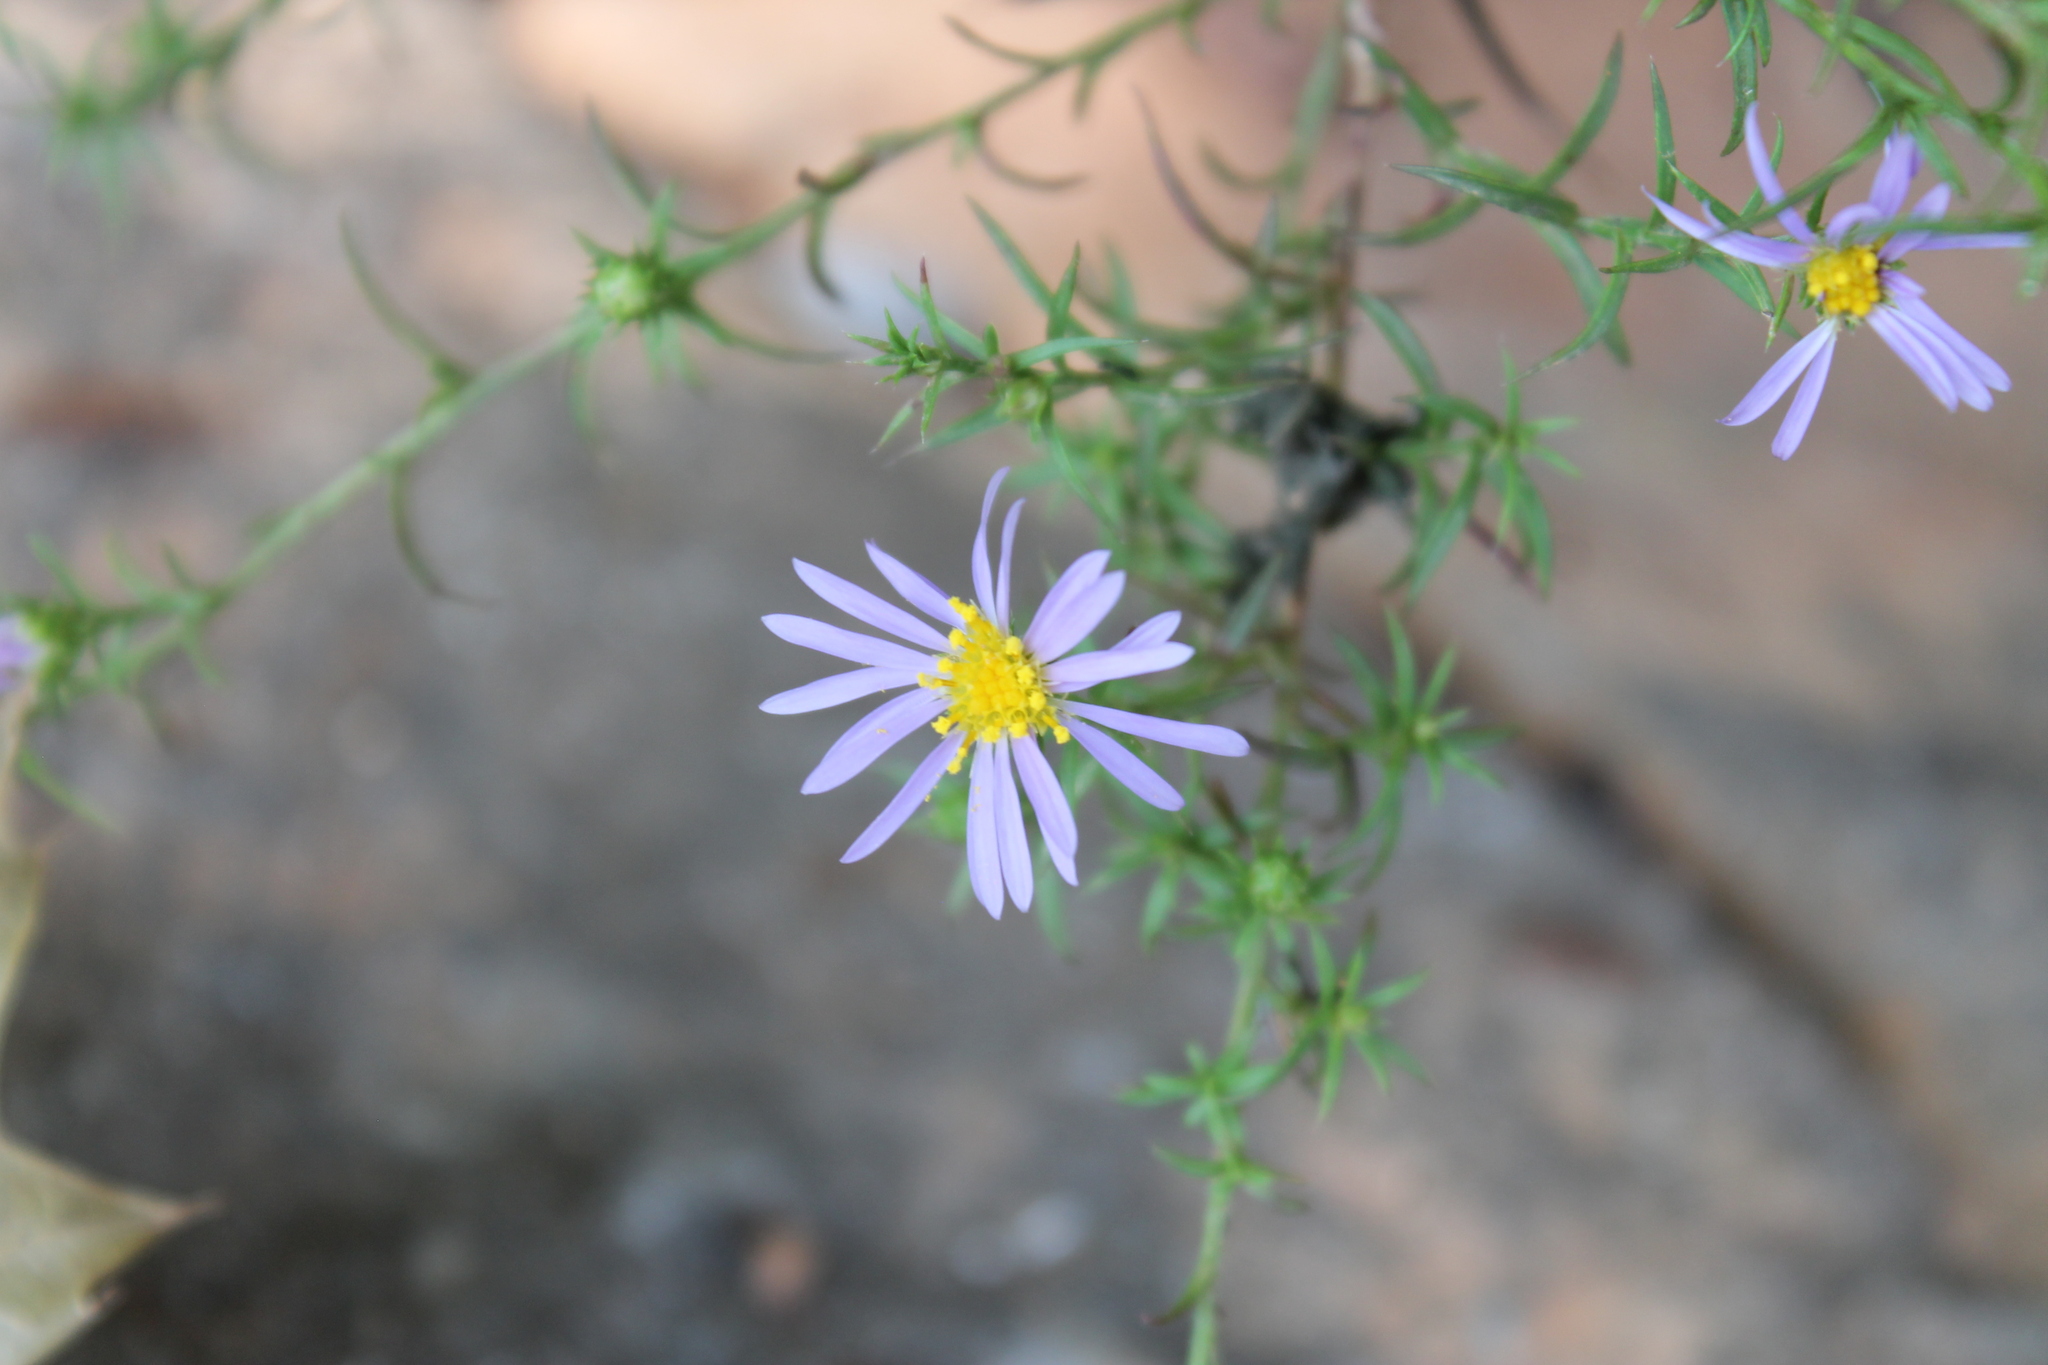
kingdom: Plantae
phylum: Tracheophyta
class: Magnoliopsida
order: Asterales
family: Asteraceae
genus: Symphyotrichum
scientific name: Symphyotrichum kentuckiense
